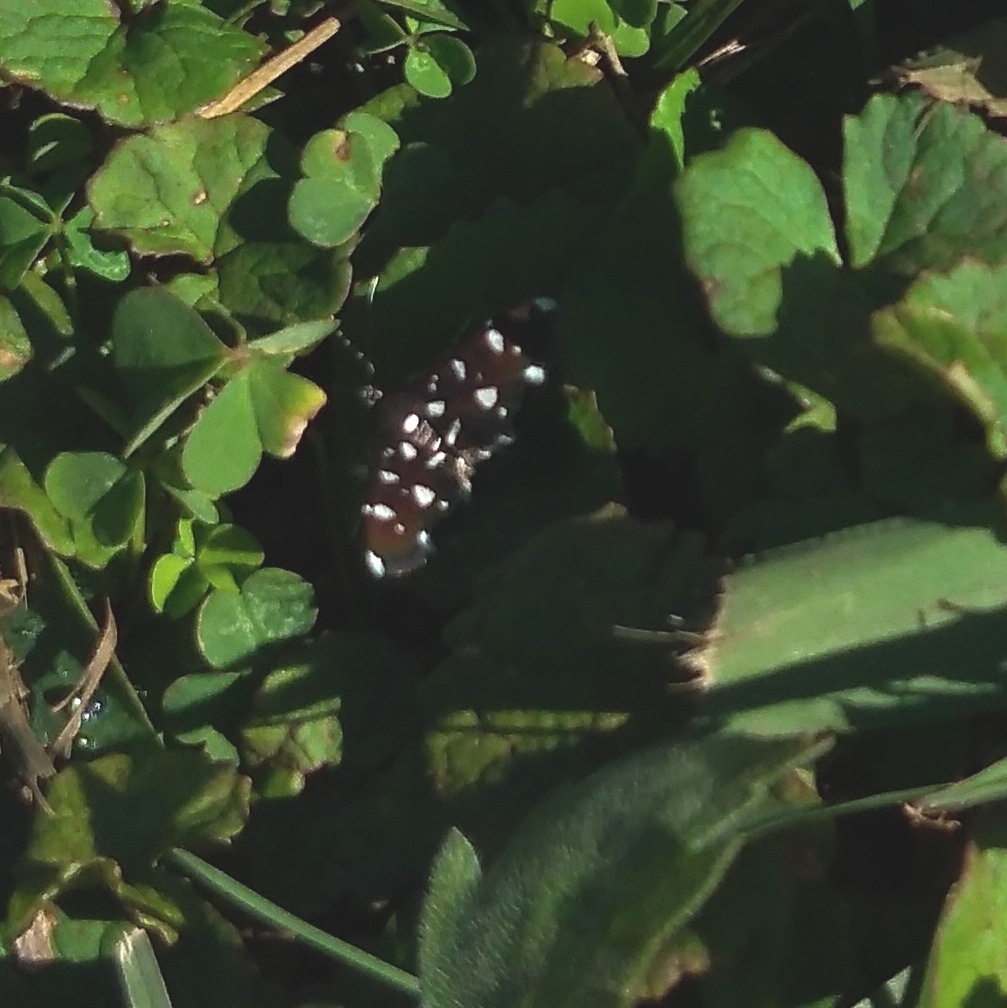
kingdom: Animalia
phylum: Arthropoda
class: Insecta
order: Lepidoptera
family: Crambidae
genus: Bocchoris
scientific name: Bocchoris inspersalis
